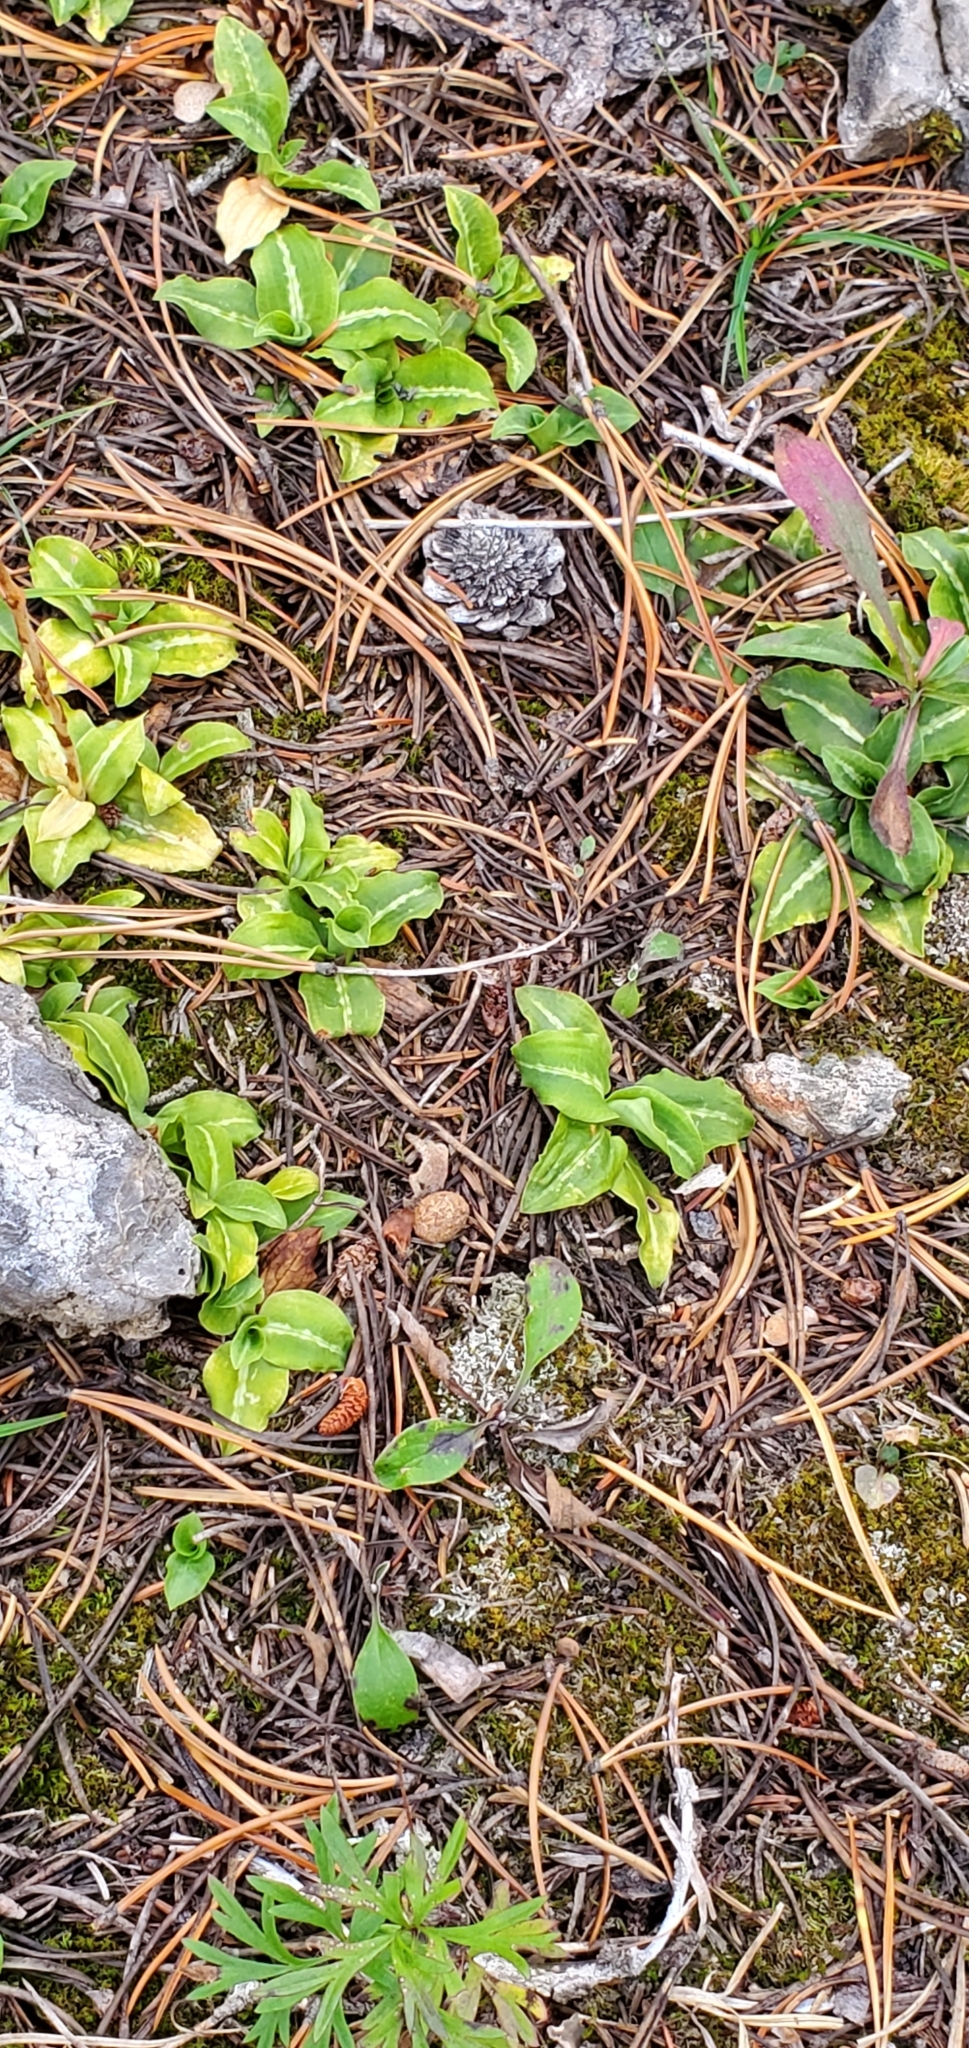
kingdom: Plantae
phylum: Tracheophyta
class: Liliopsida
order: Asparagales
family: Orchidaceae
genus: Goodyera
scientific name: Goodyera oblongifolia
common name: Giant rattlesnake-plantain
